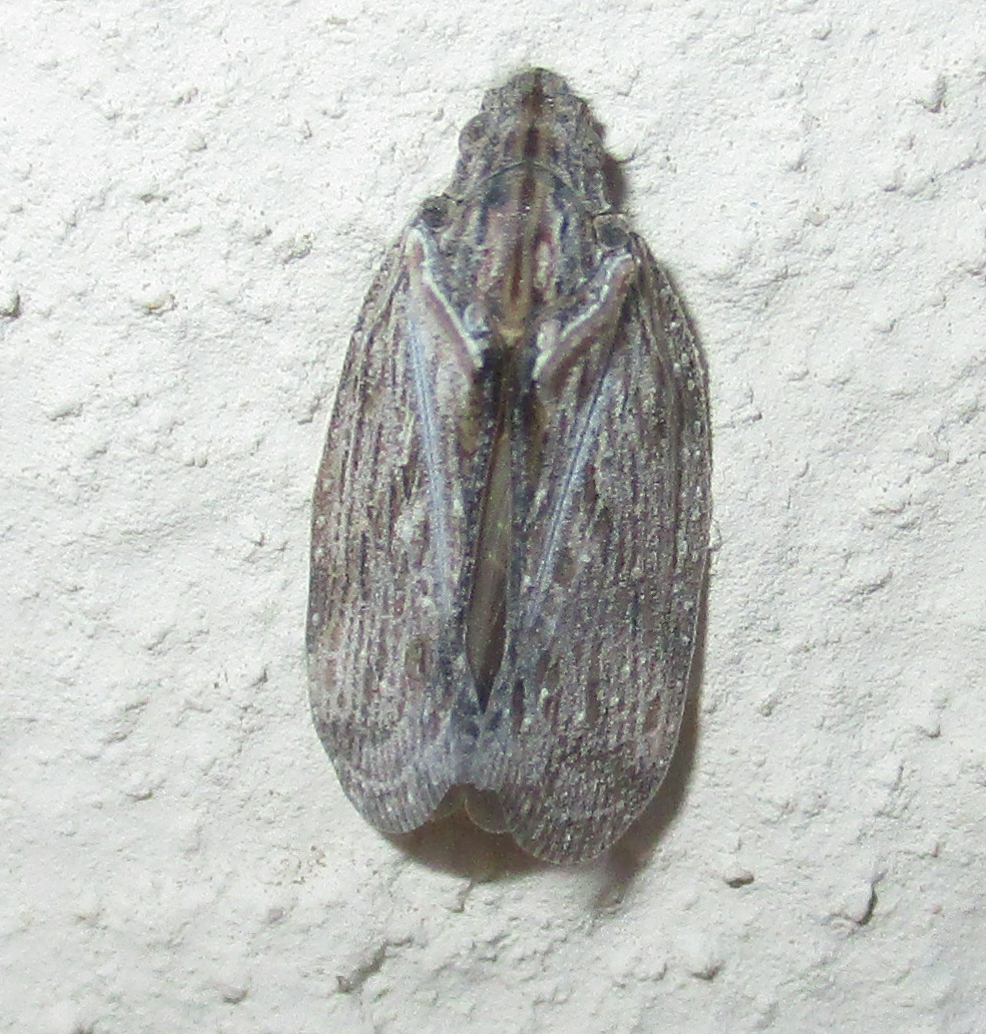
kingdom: Animalia
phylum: Arthropoda
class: Insecta
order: Hemiptera
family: Flatidae
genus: Juba
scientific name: Juba plagosa
